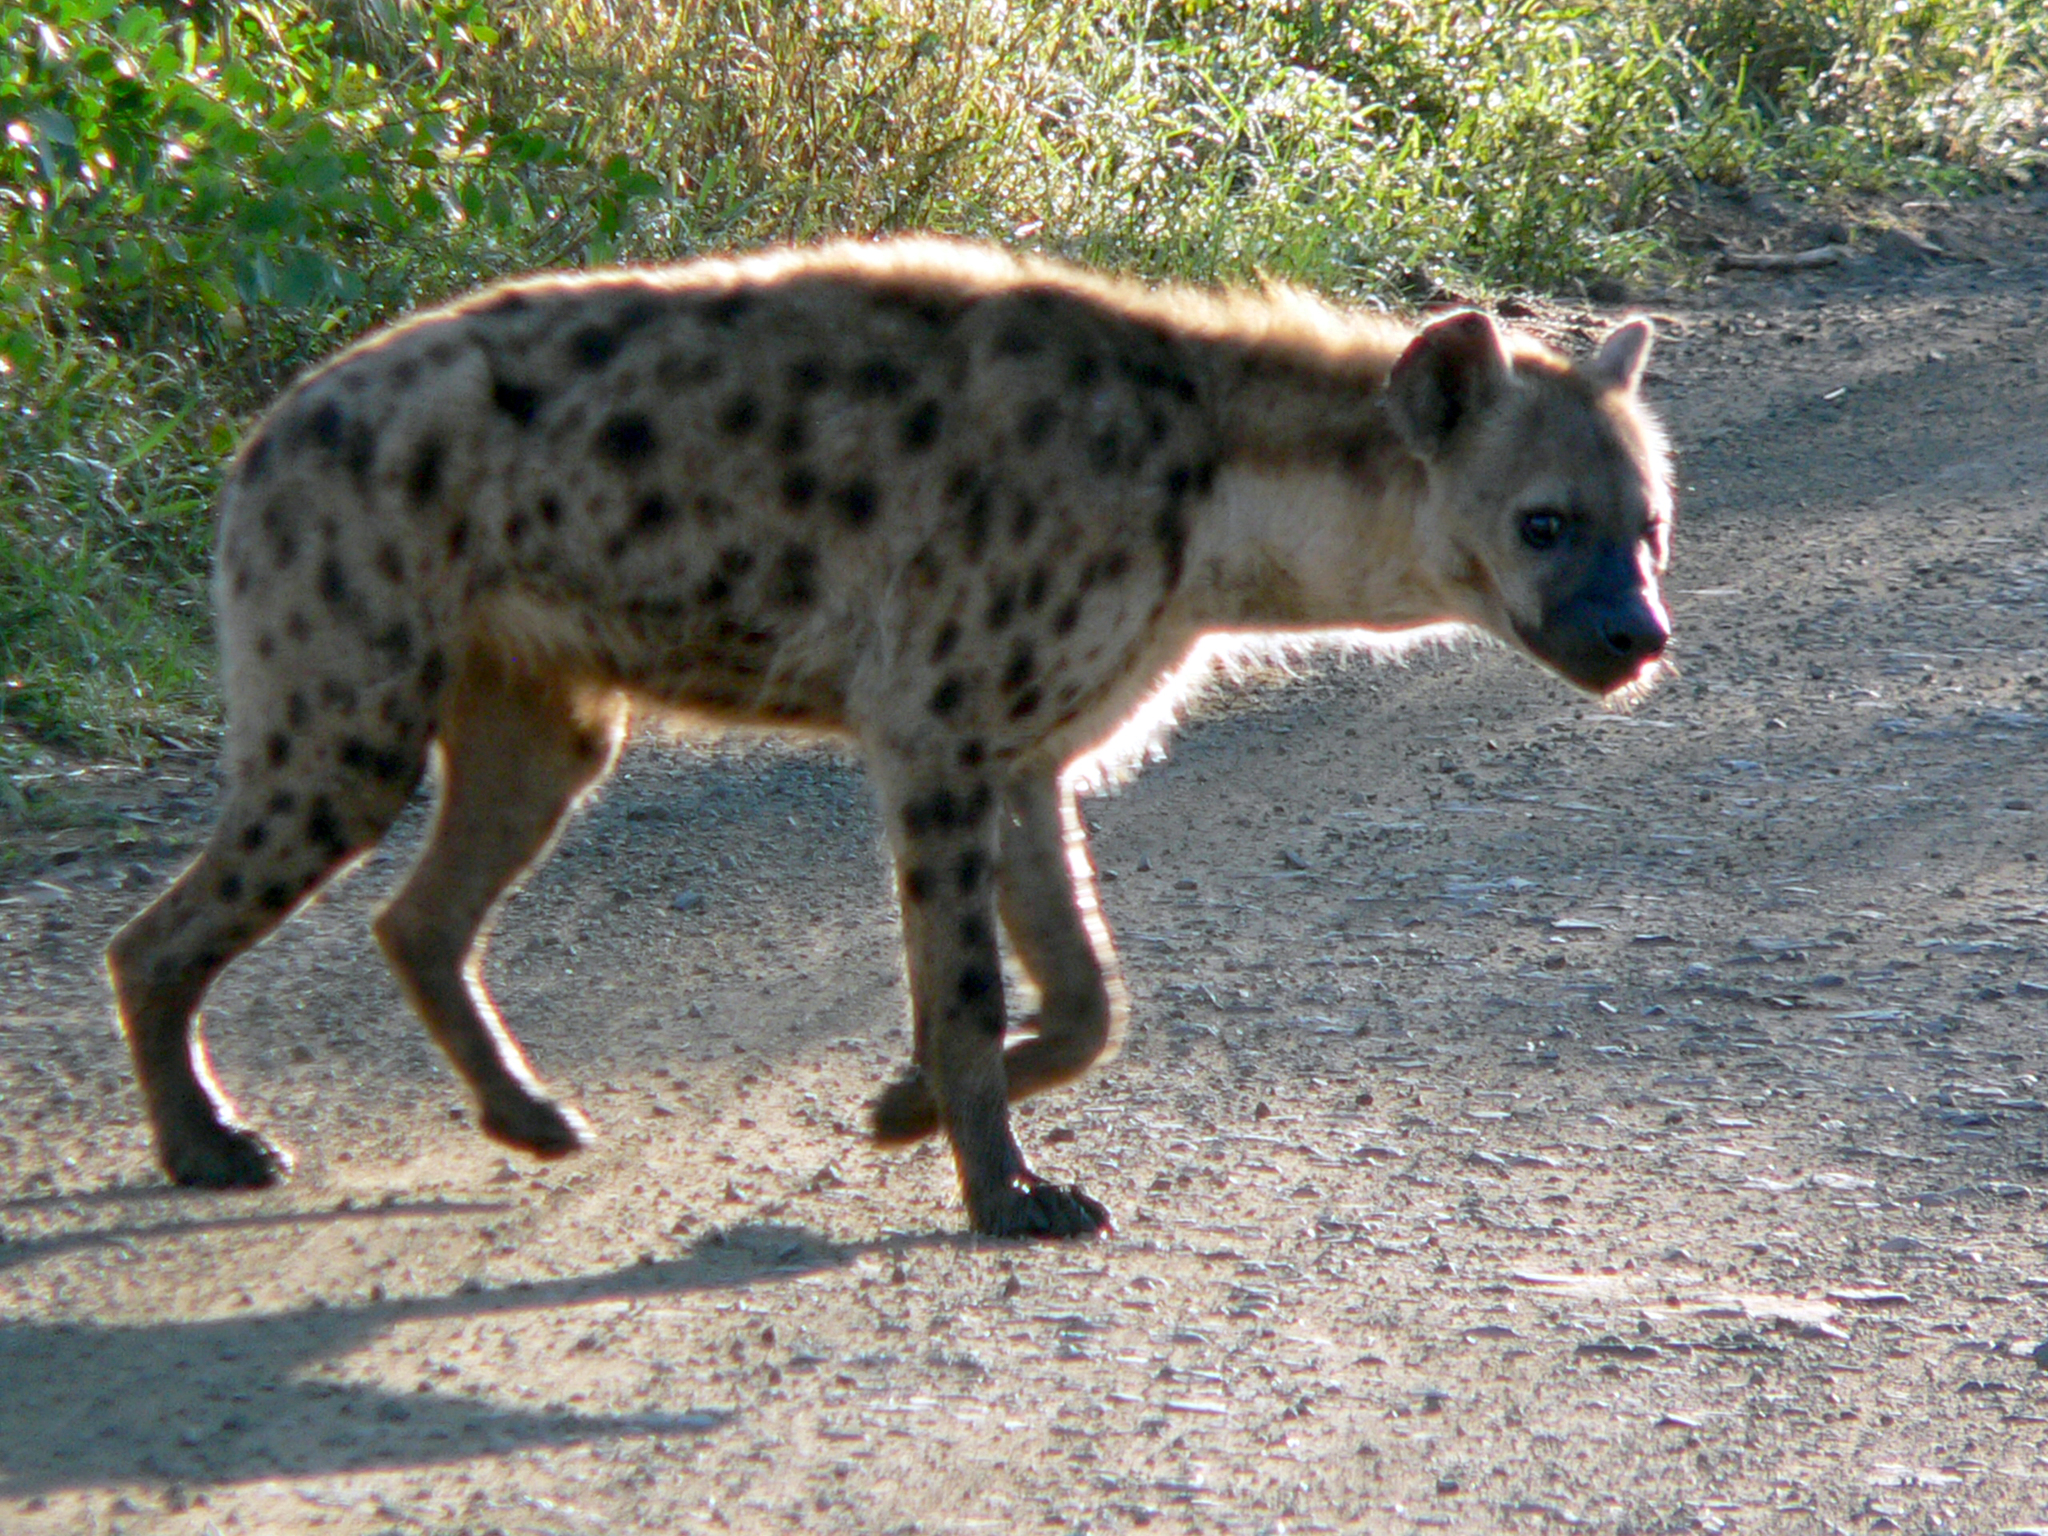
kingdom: Animalia
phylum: Chordata
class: Mammalia
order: Carnivora
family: Hyaenidae
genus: Crocuta
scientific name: Crocuta crocuta
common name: Spotted hyaena
